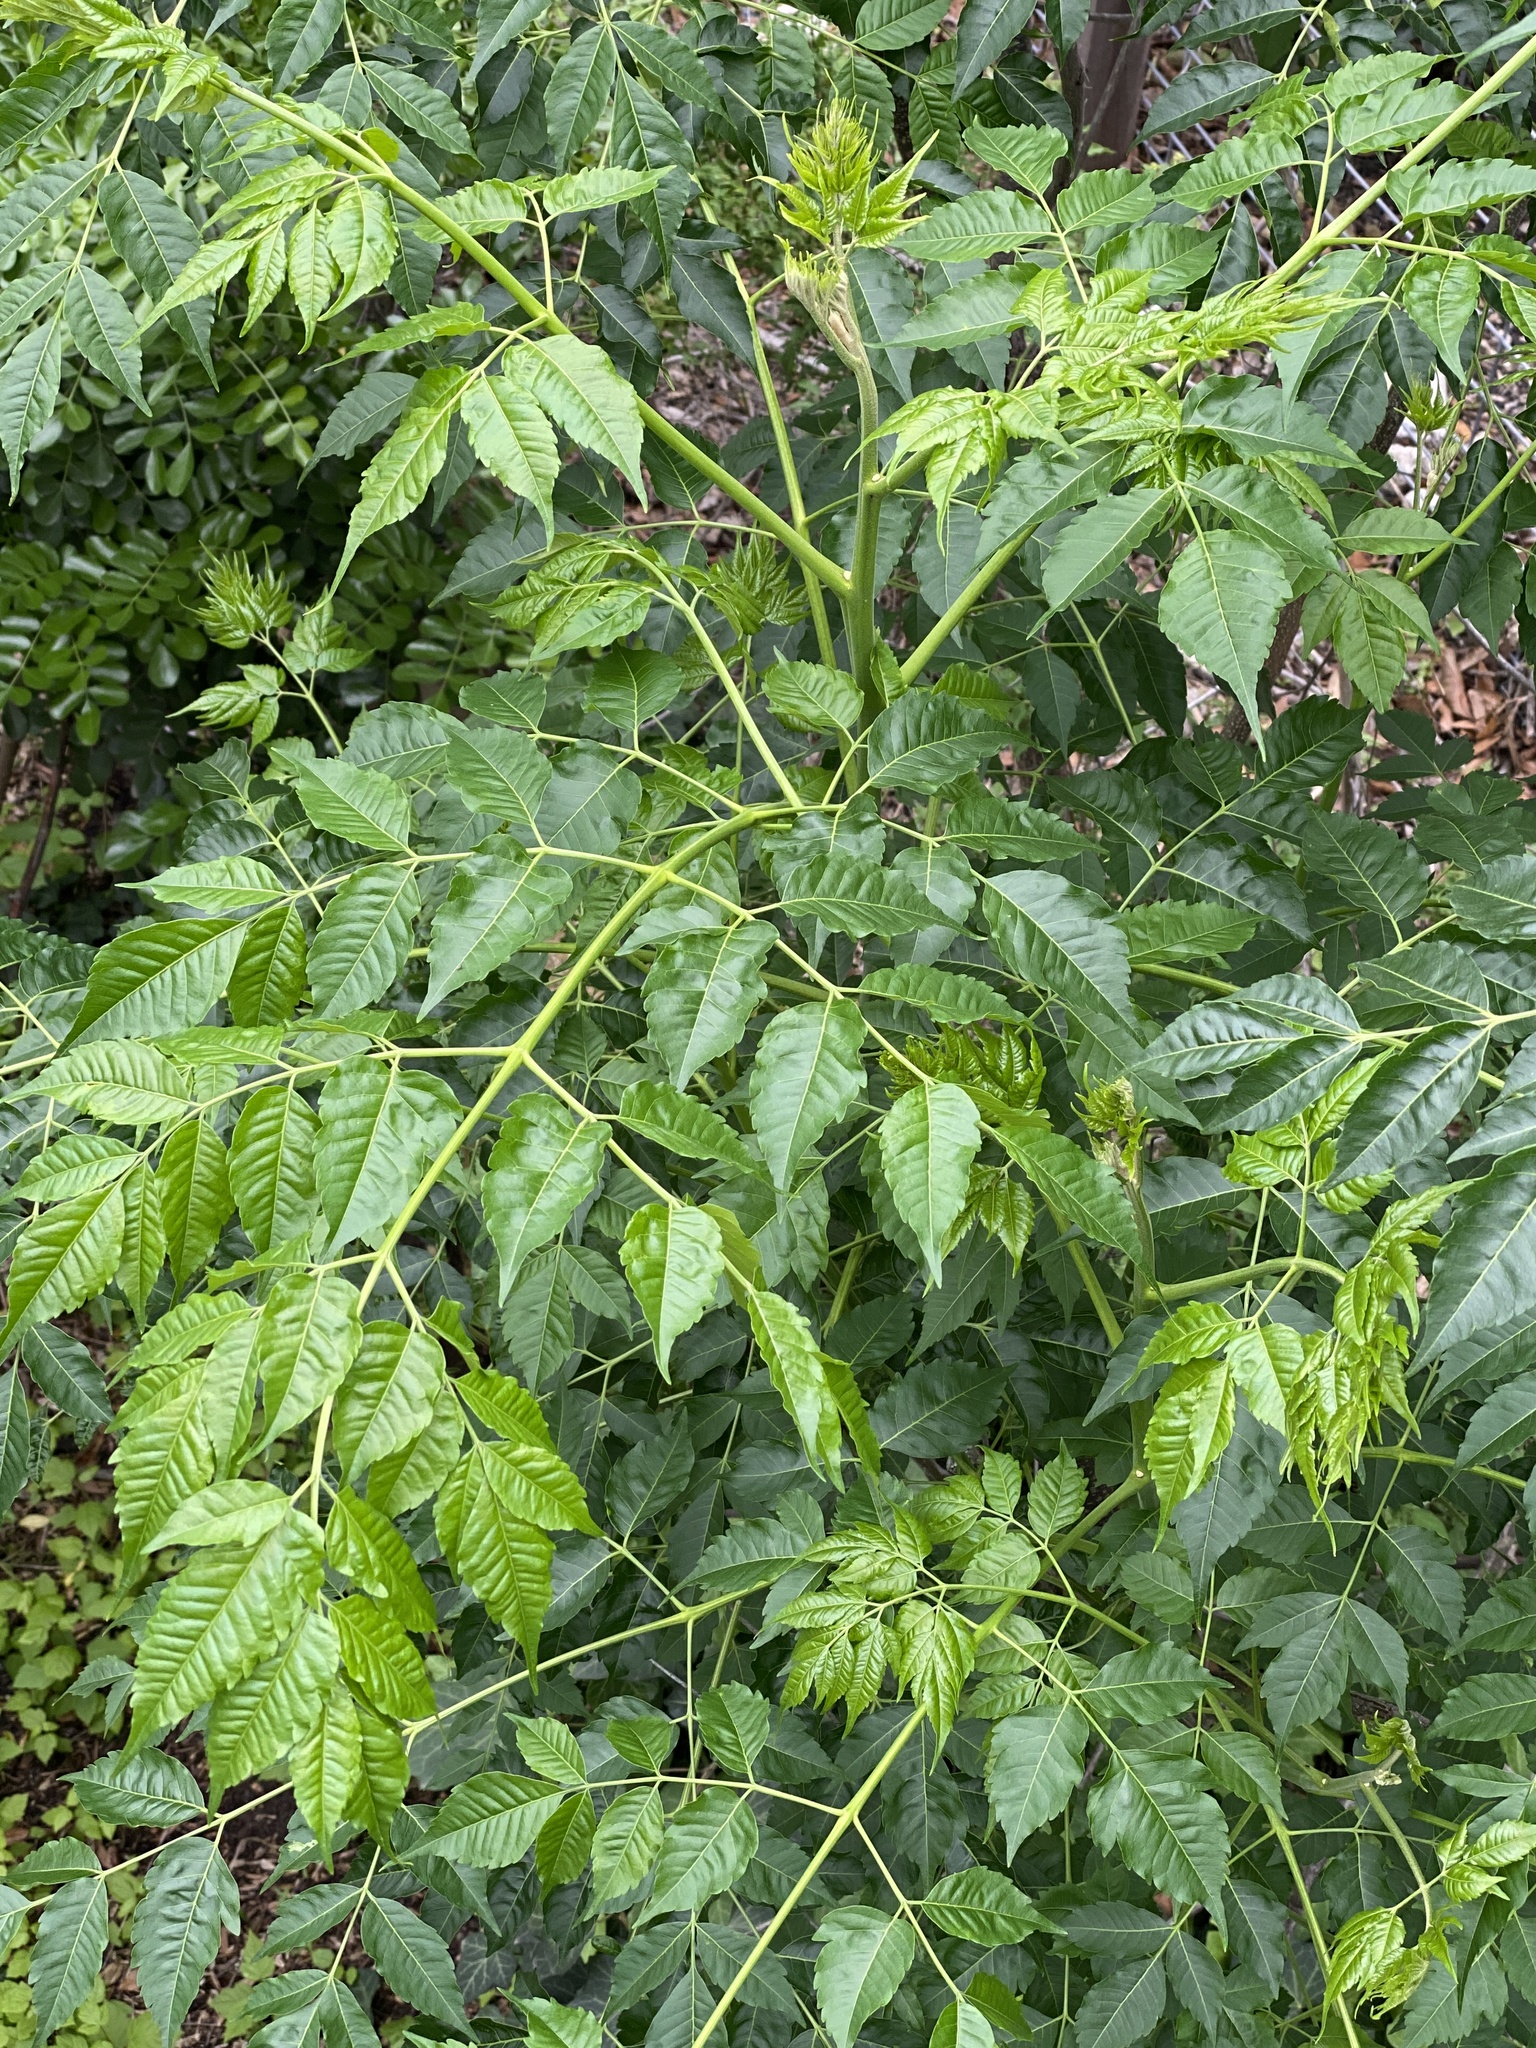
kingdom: Plantae
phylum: Tracheophyta
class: Magnoliopsida
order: Sapindales
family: Meliaceae
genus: Melia
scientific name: Melia azedarach
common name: Chinaberrytree
